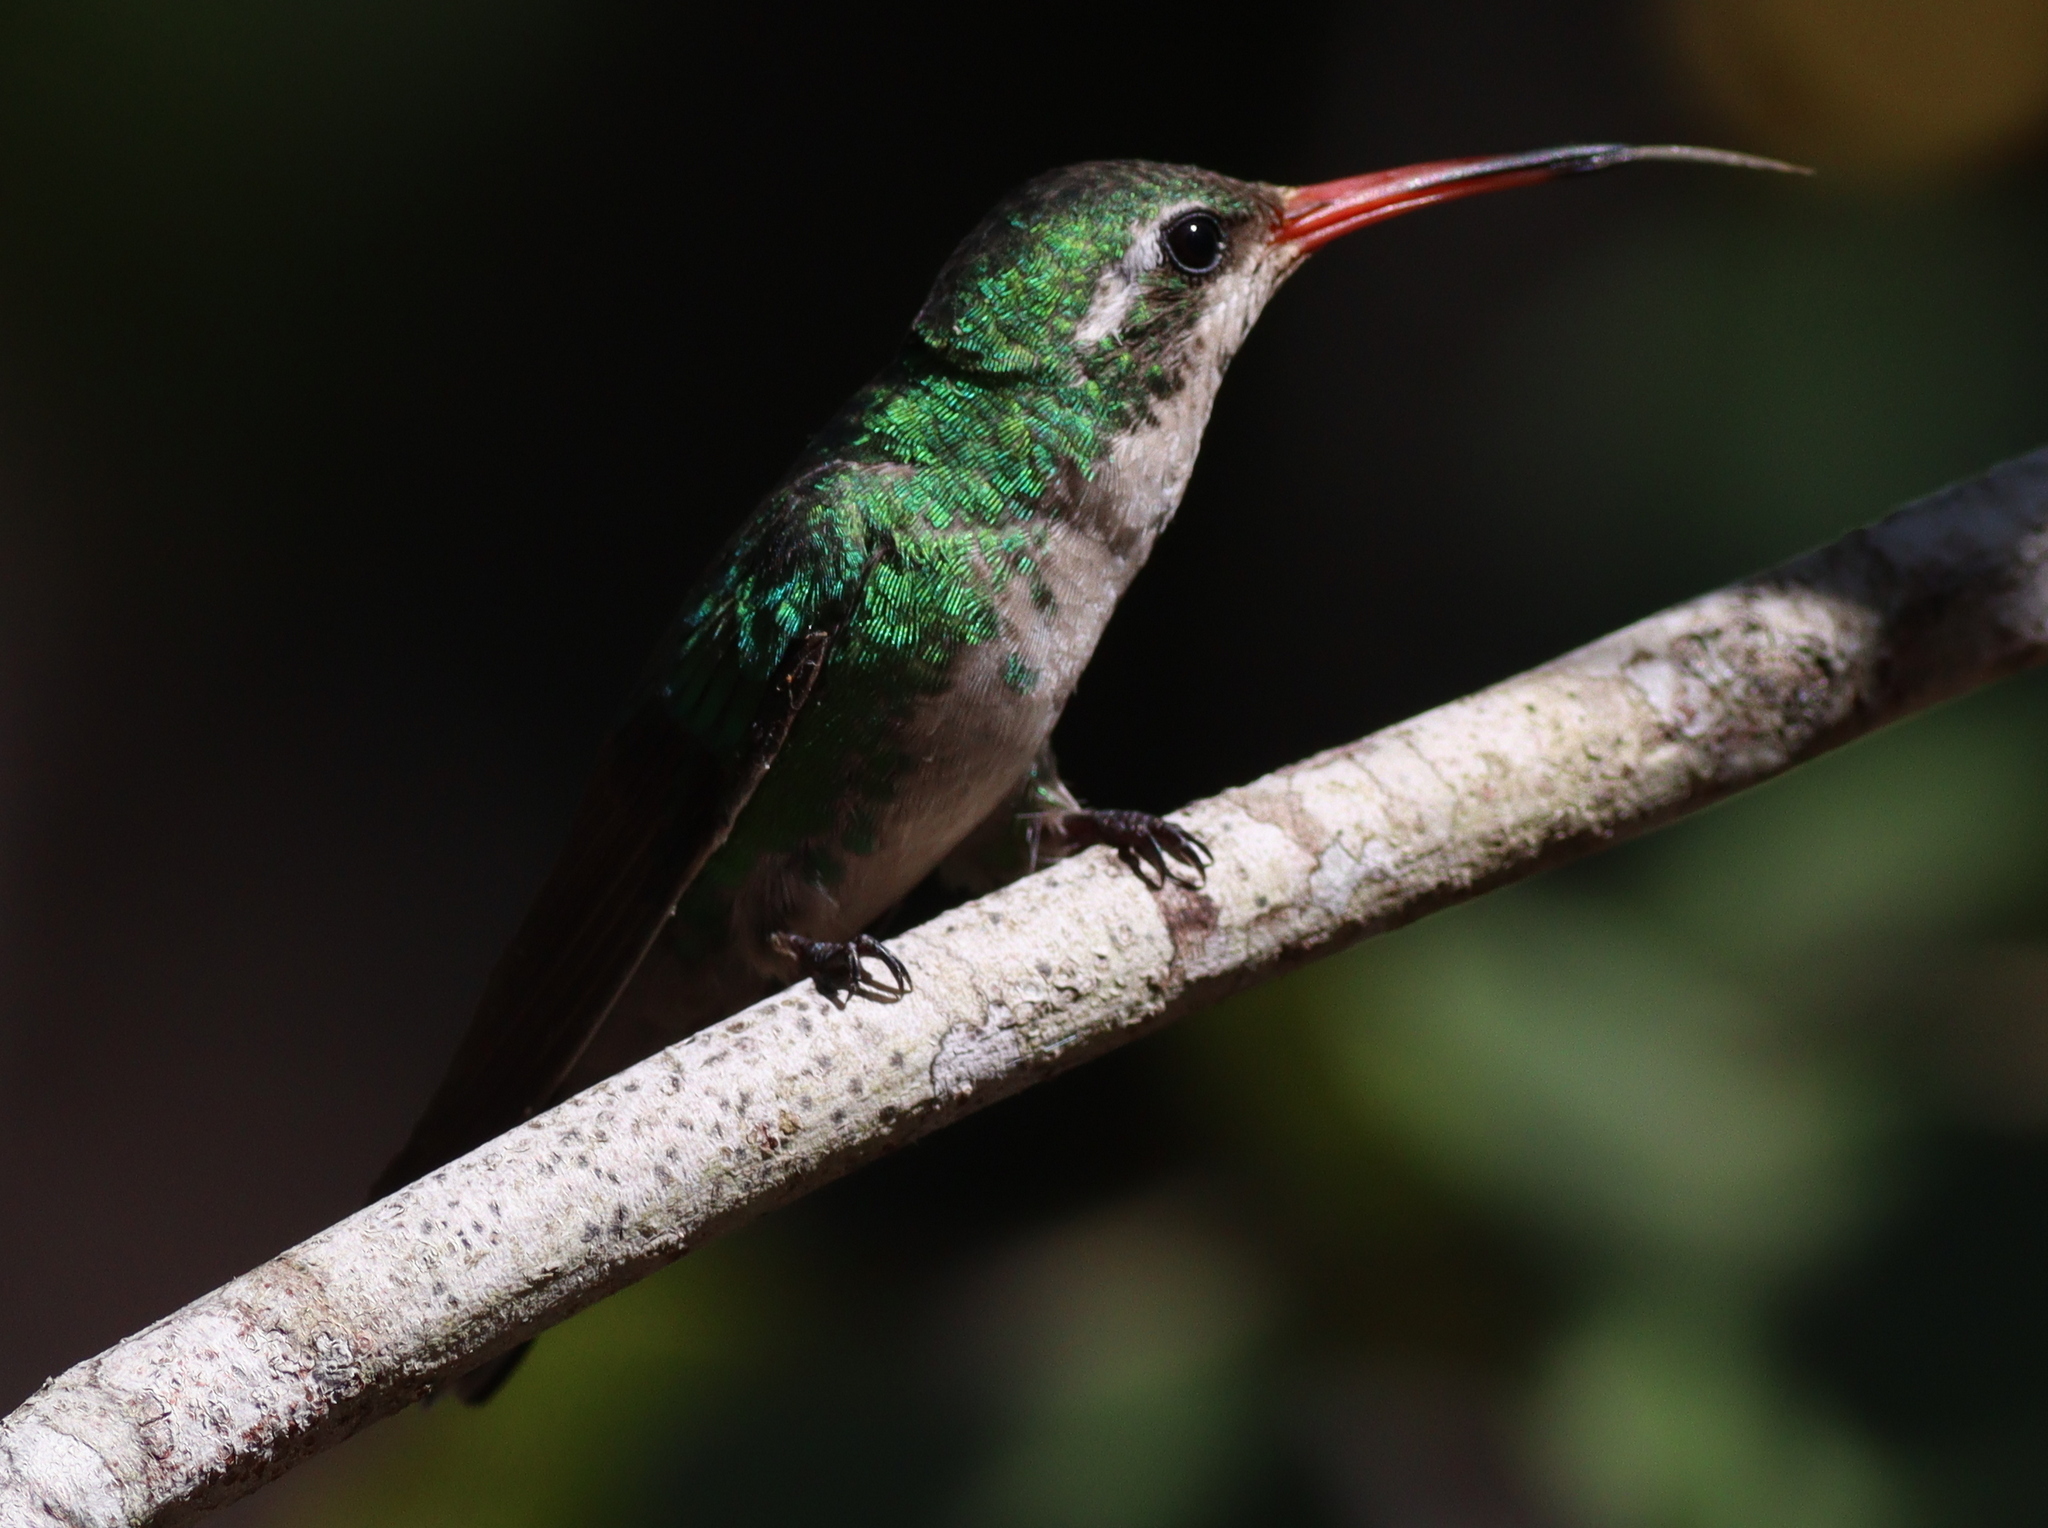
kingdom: Animalia
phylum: Chordata
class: Aves
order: Apodiformes
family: Trochilidae
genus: Chlorostilbon
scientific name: Chlorostilbon lucidus
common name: Glittering-bellied emerald
